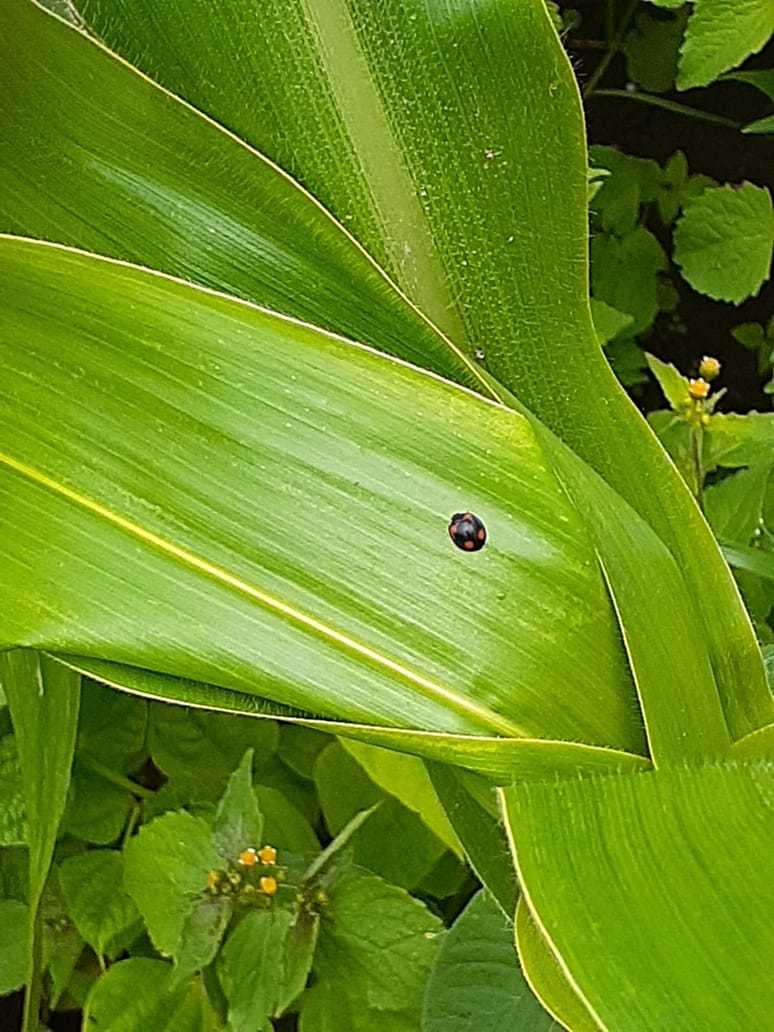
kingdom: Animalia
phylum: Arthropoda
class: Insecta
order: Coleoptera
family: Coccinellidae
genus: Cheilomenes
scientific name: Cheilomenes sexmaculata
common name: Ladybird beetle
